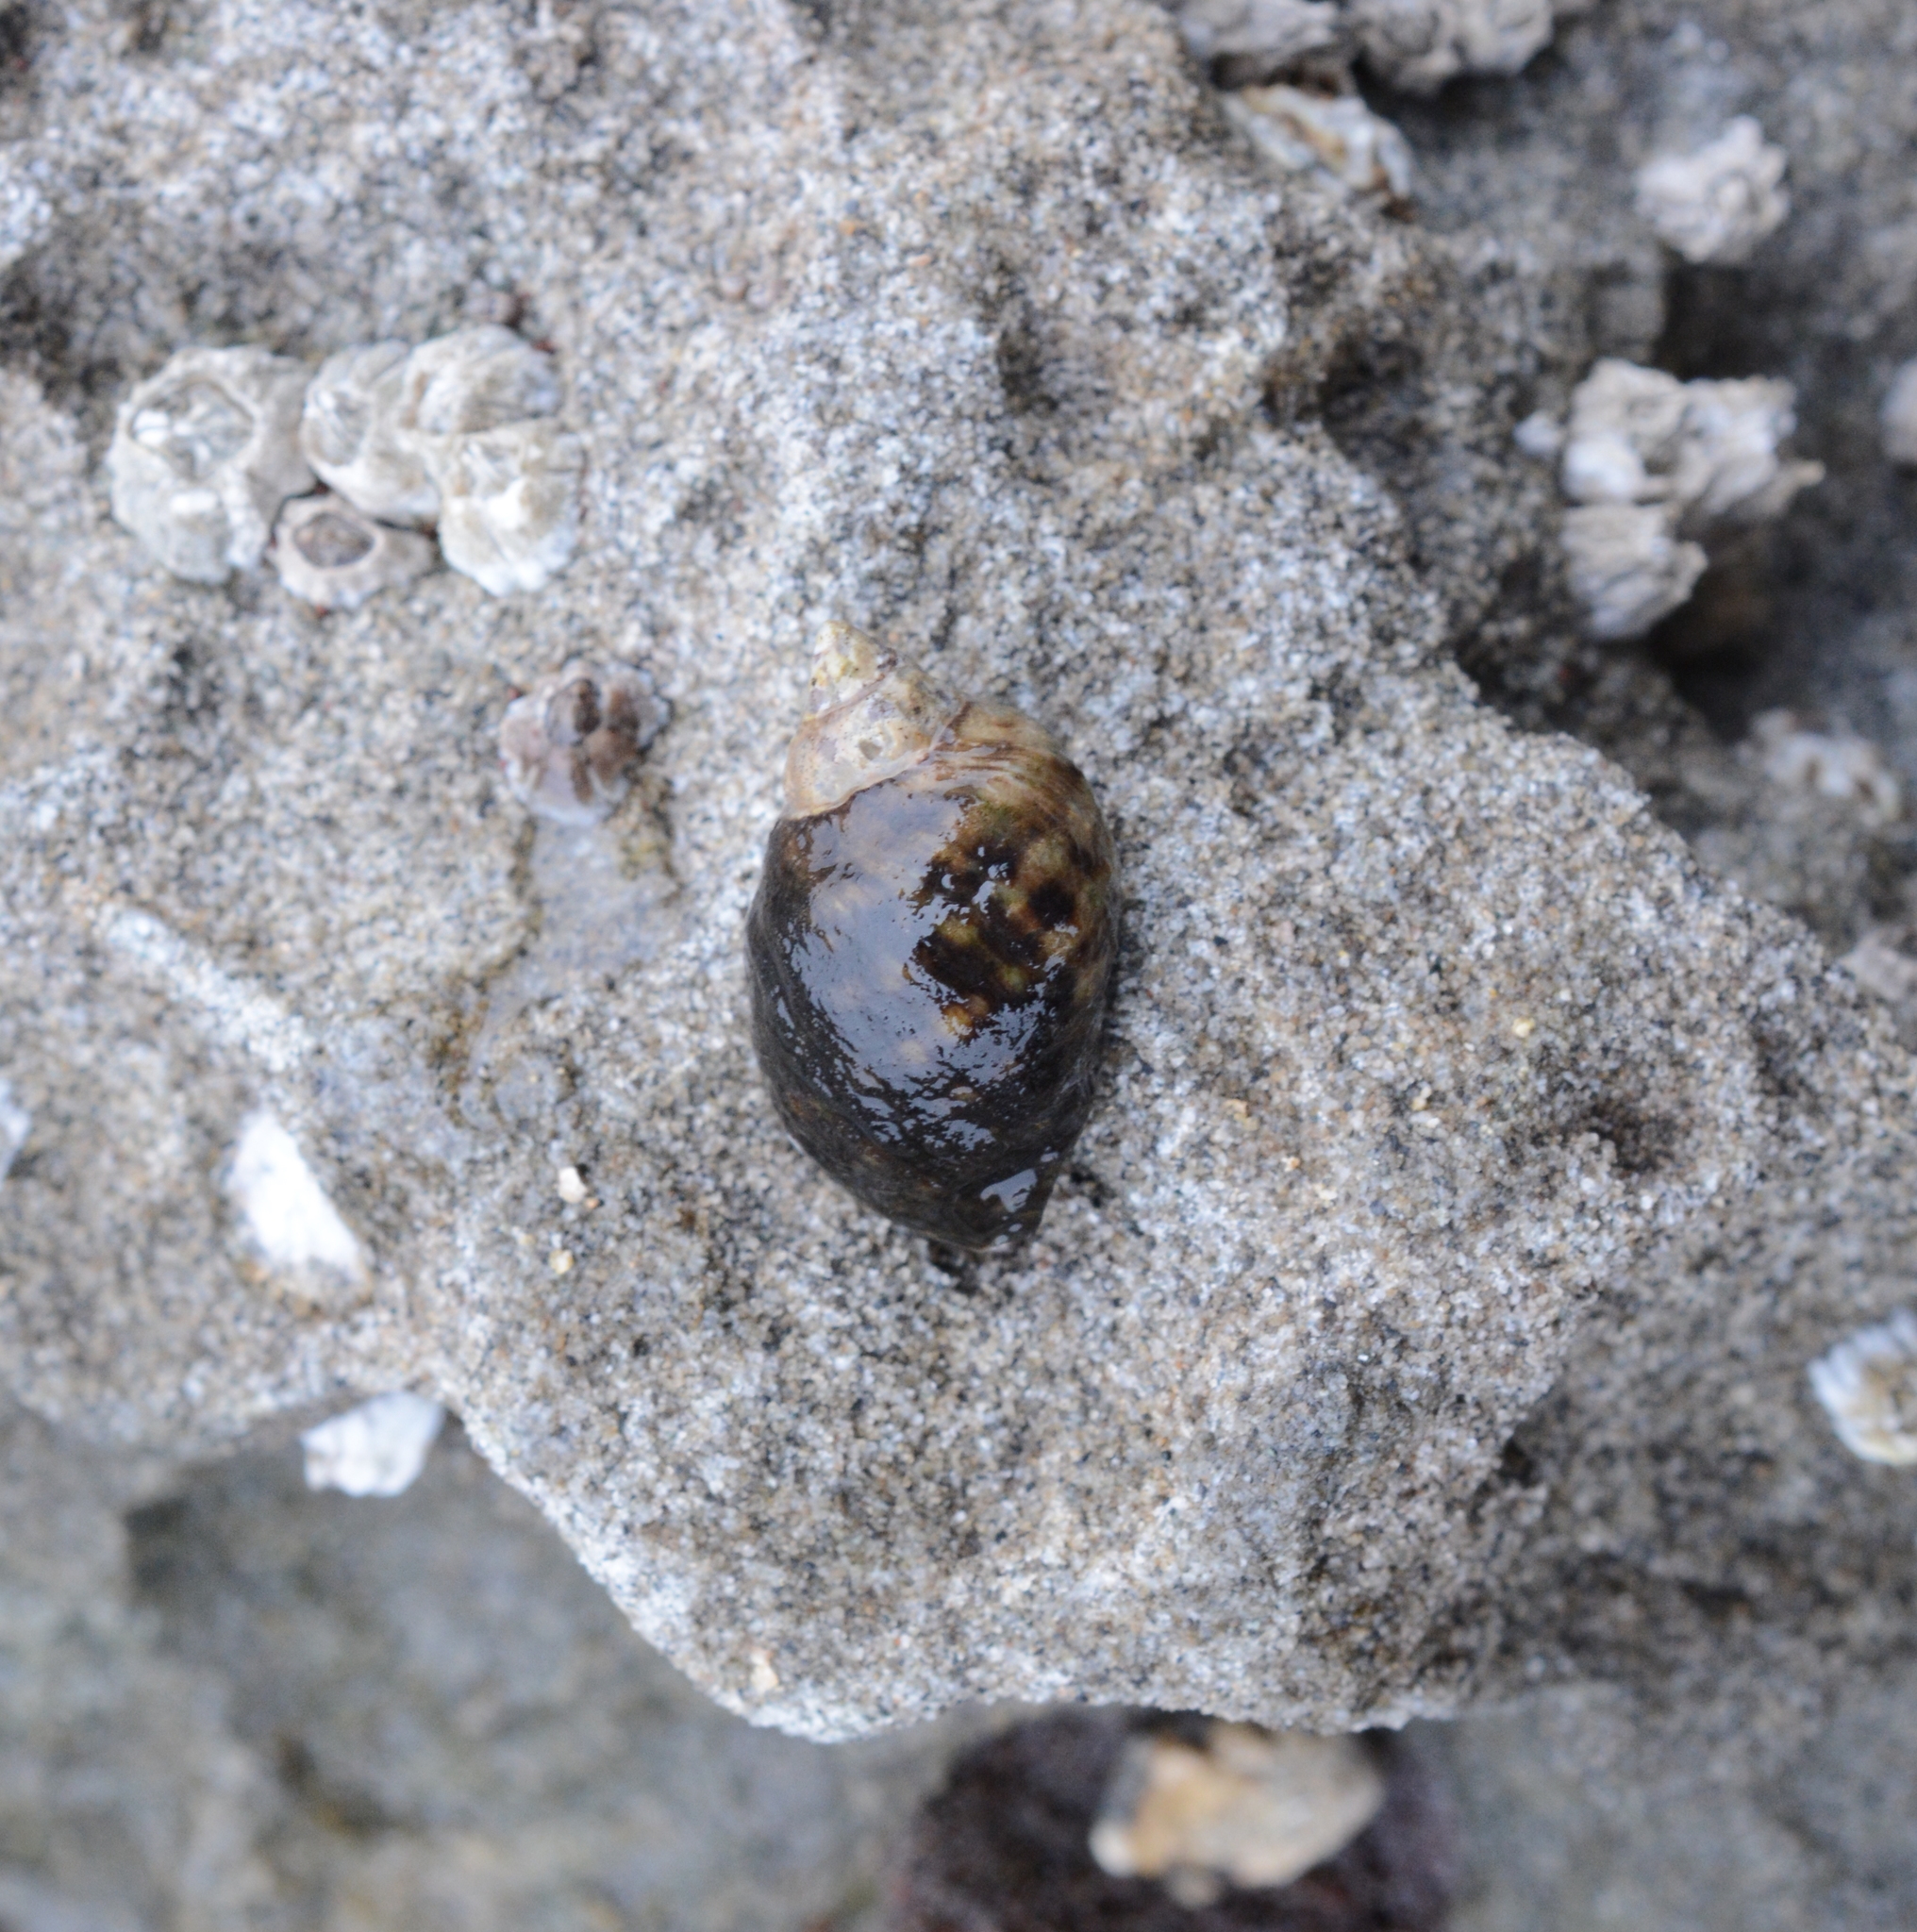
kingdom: Animalia
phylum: Mollusca
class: Gastropoda
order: Neogastropoda
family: Muricidae
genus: Nucella
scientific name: Nucella ostrina
